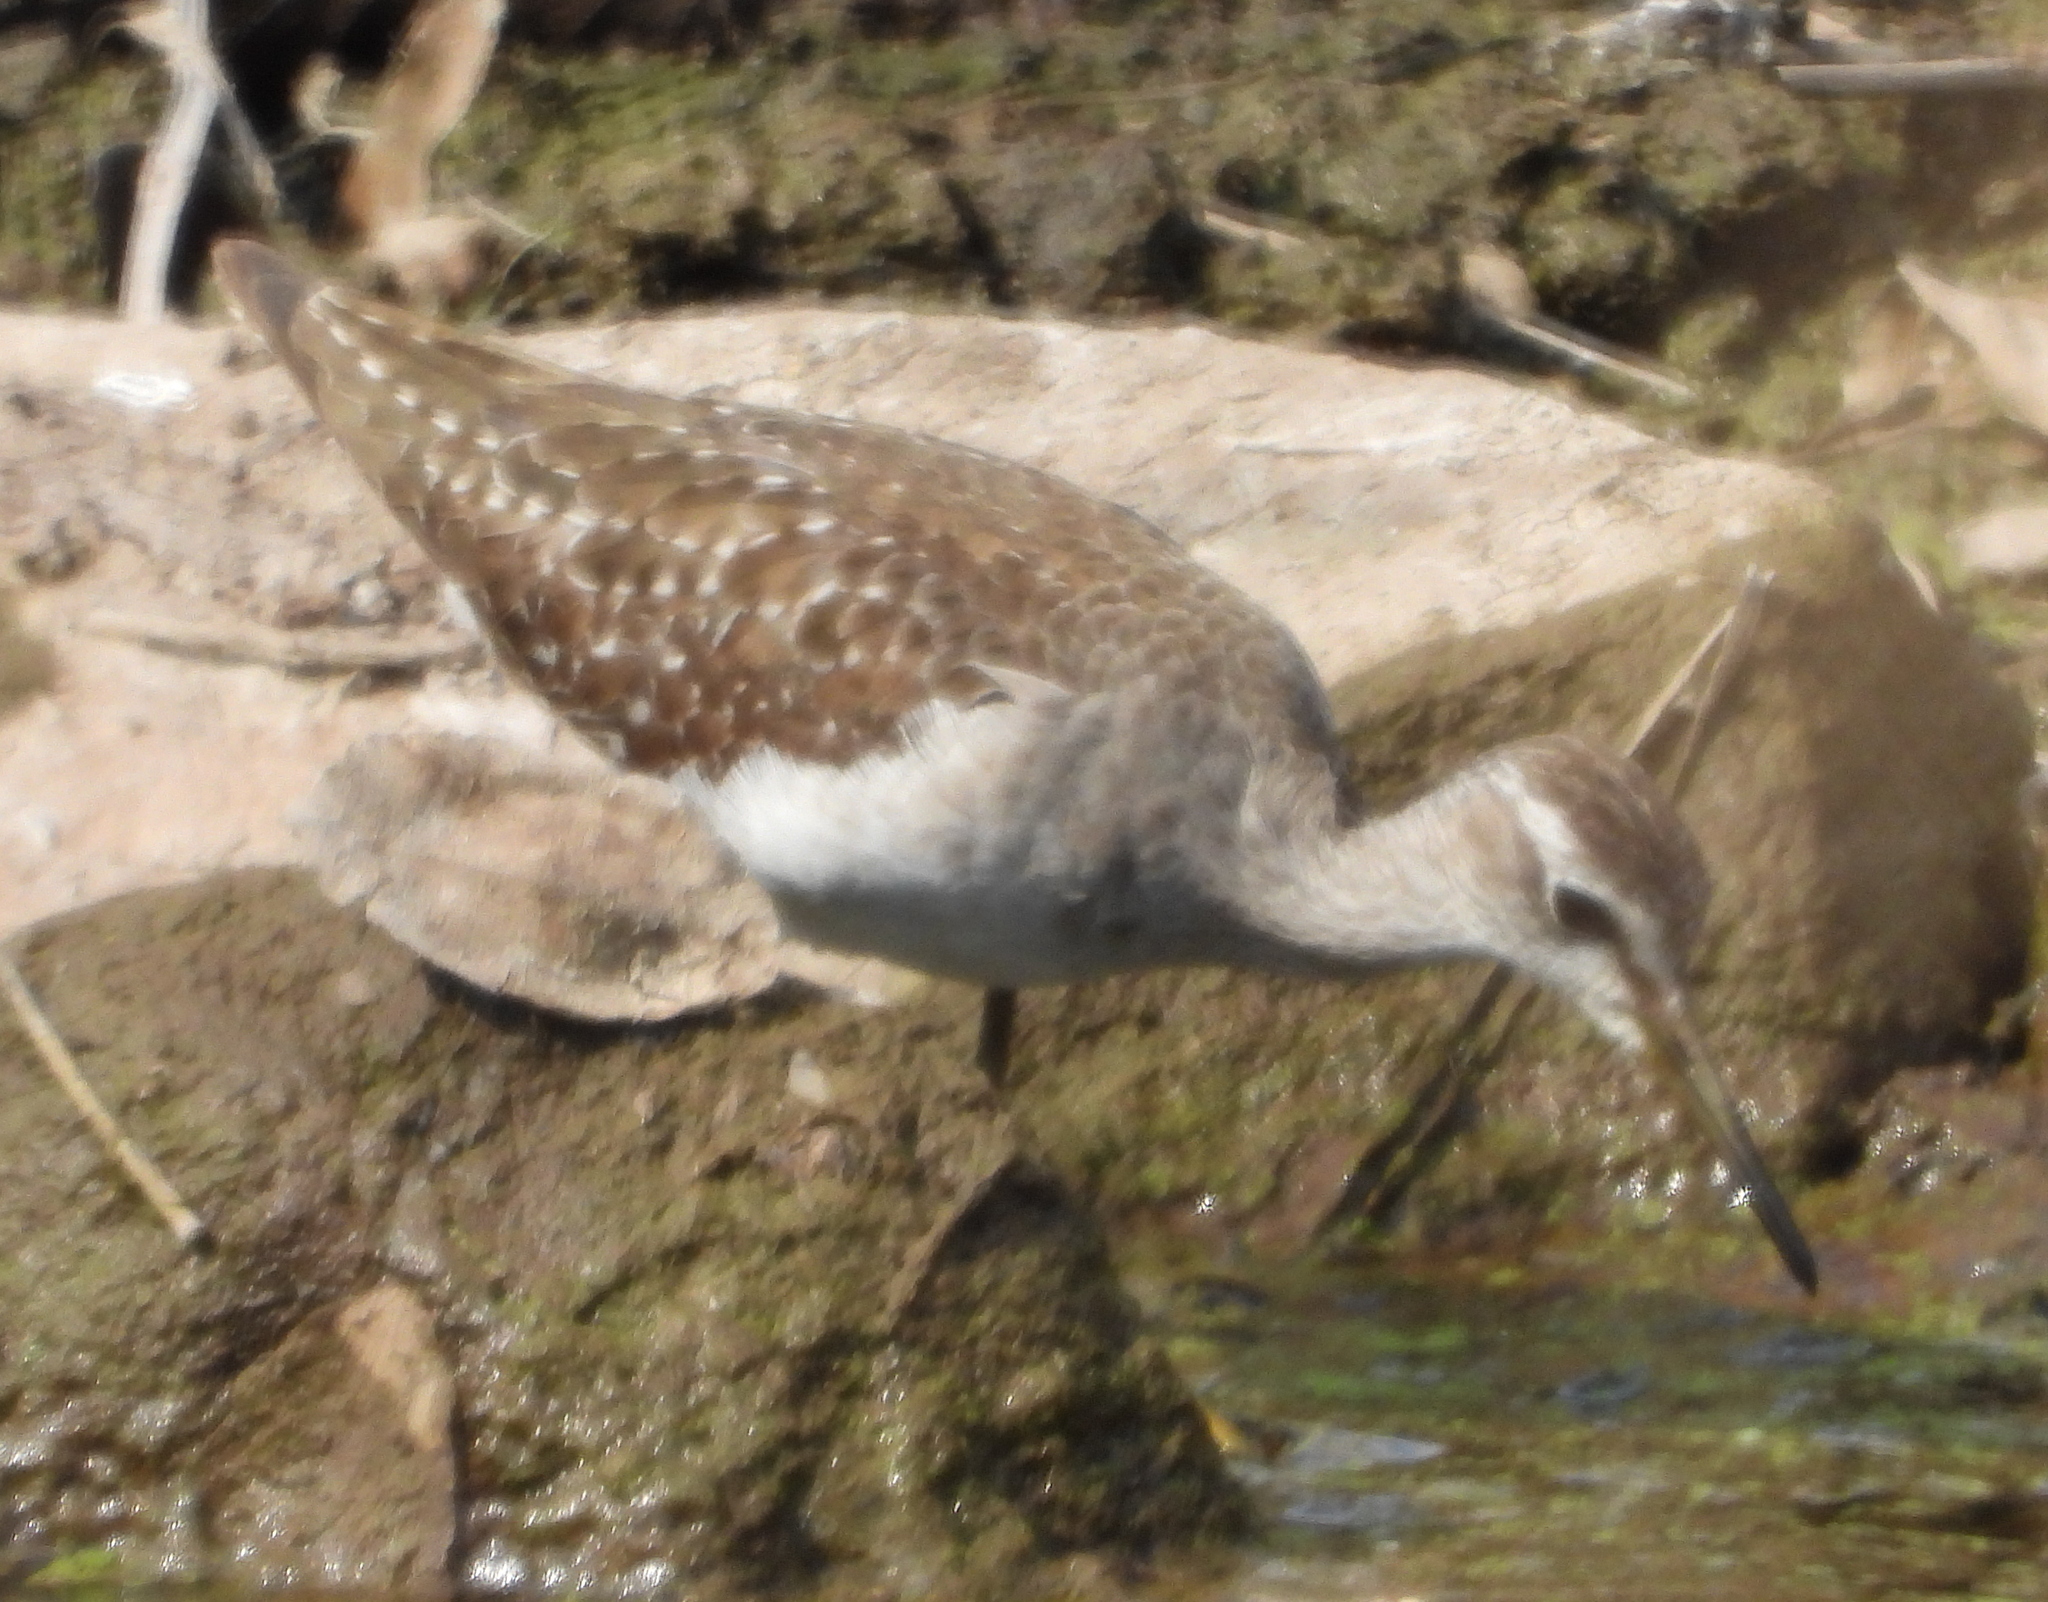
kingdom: Animalia
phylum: Chordata
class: Aves
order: Charadriiformes
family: Scolopacidae
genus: Tringa
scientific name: Tringa glareola
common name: Wood sandpiper
